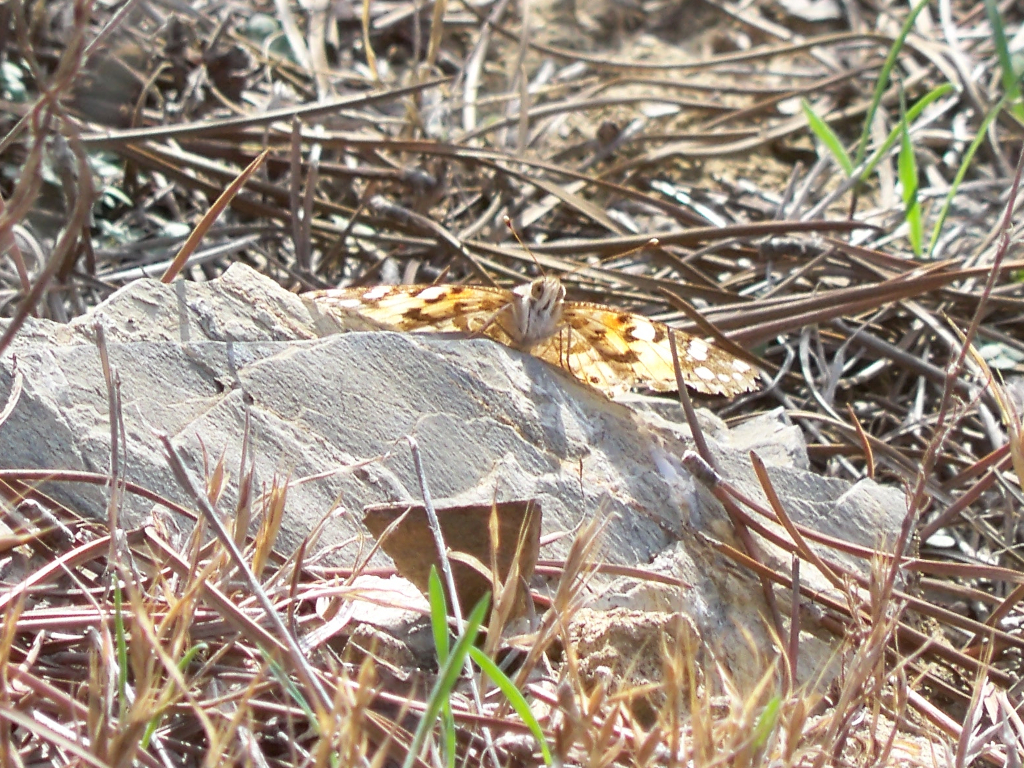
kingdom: Animalia
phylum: Arthropoda
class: Insecta
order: Lepidoptera
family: Nymphalidae
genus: Vanessa
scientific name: Vanessa cardui
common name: Painted lady
